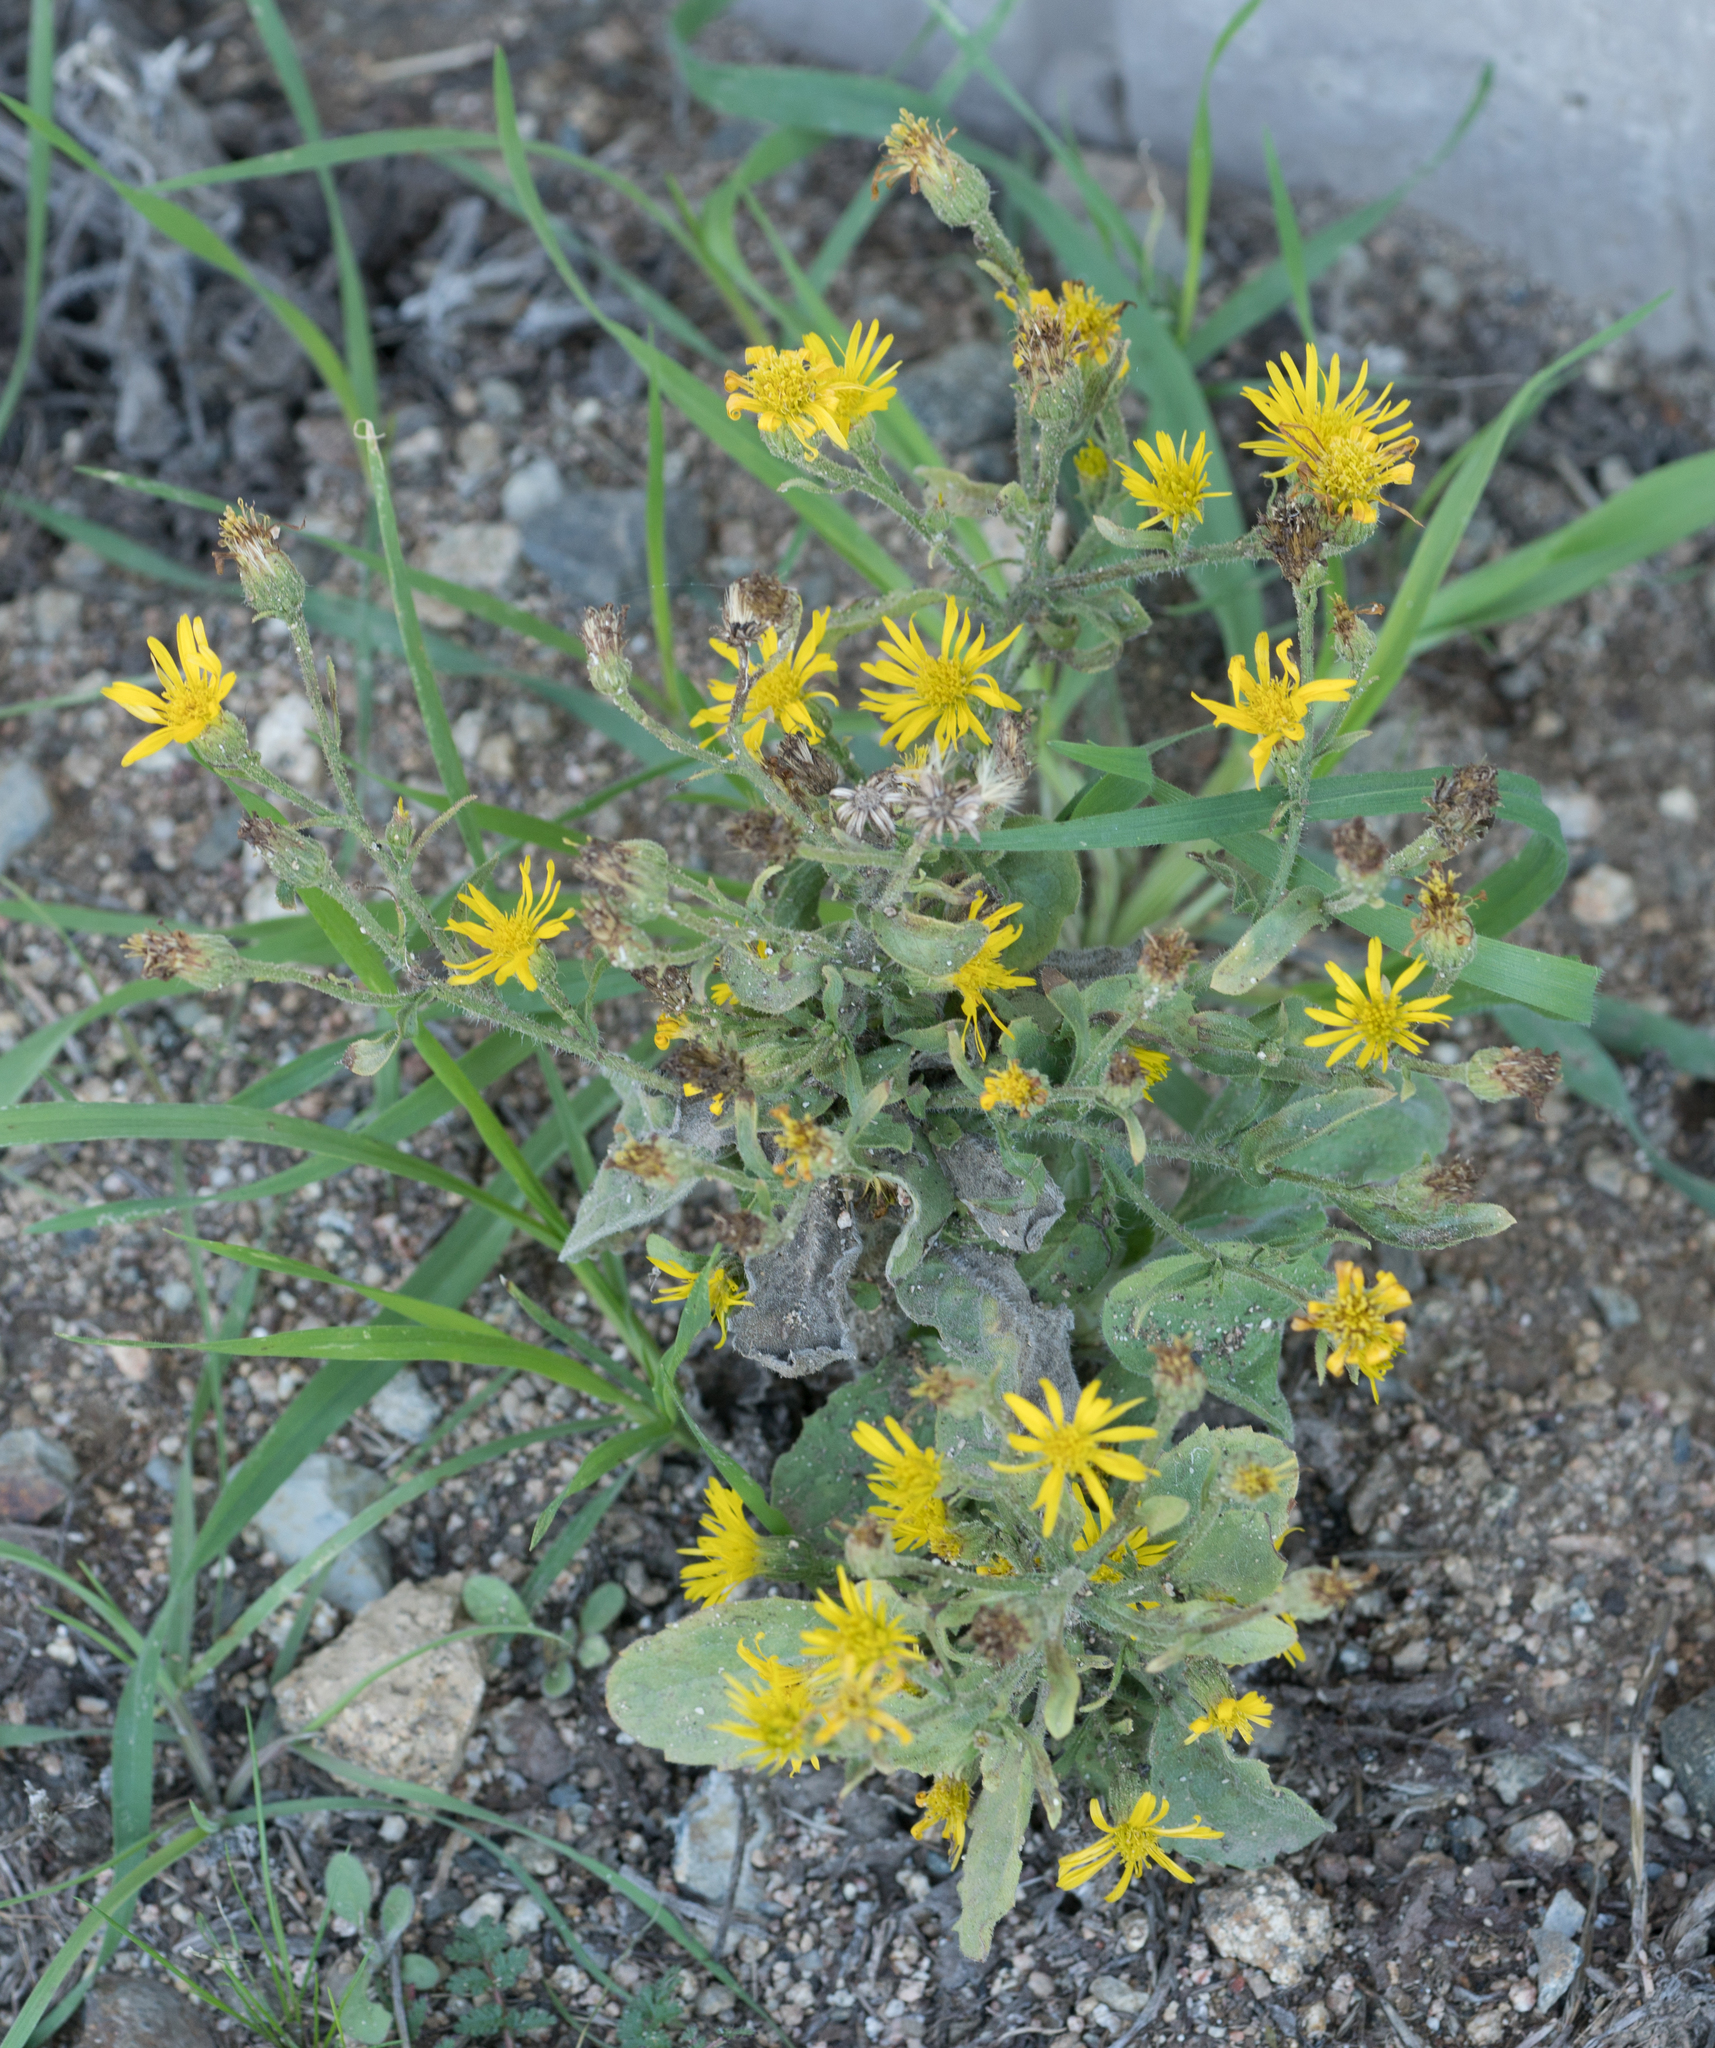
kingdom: Plantae
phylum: Tracheophyta
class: Magnoliopsida
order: Asterales
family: Asteraceae
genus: Heterotheca
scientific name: Heterotheca grandiflora
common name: Telegraphweed
